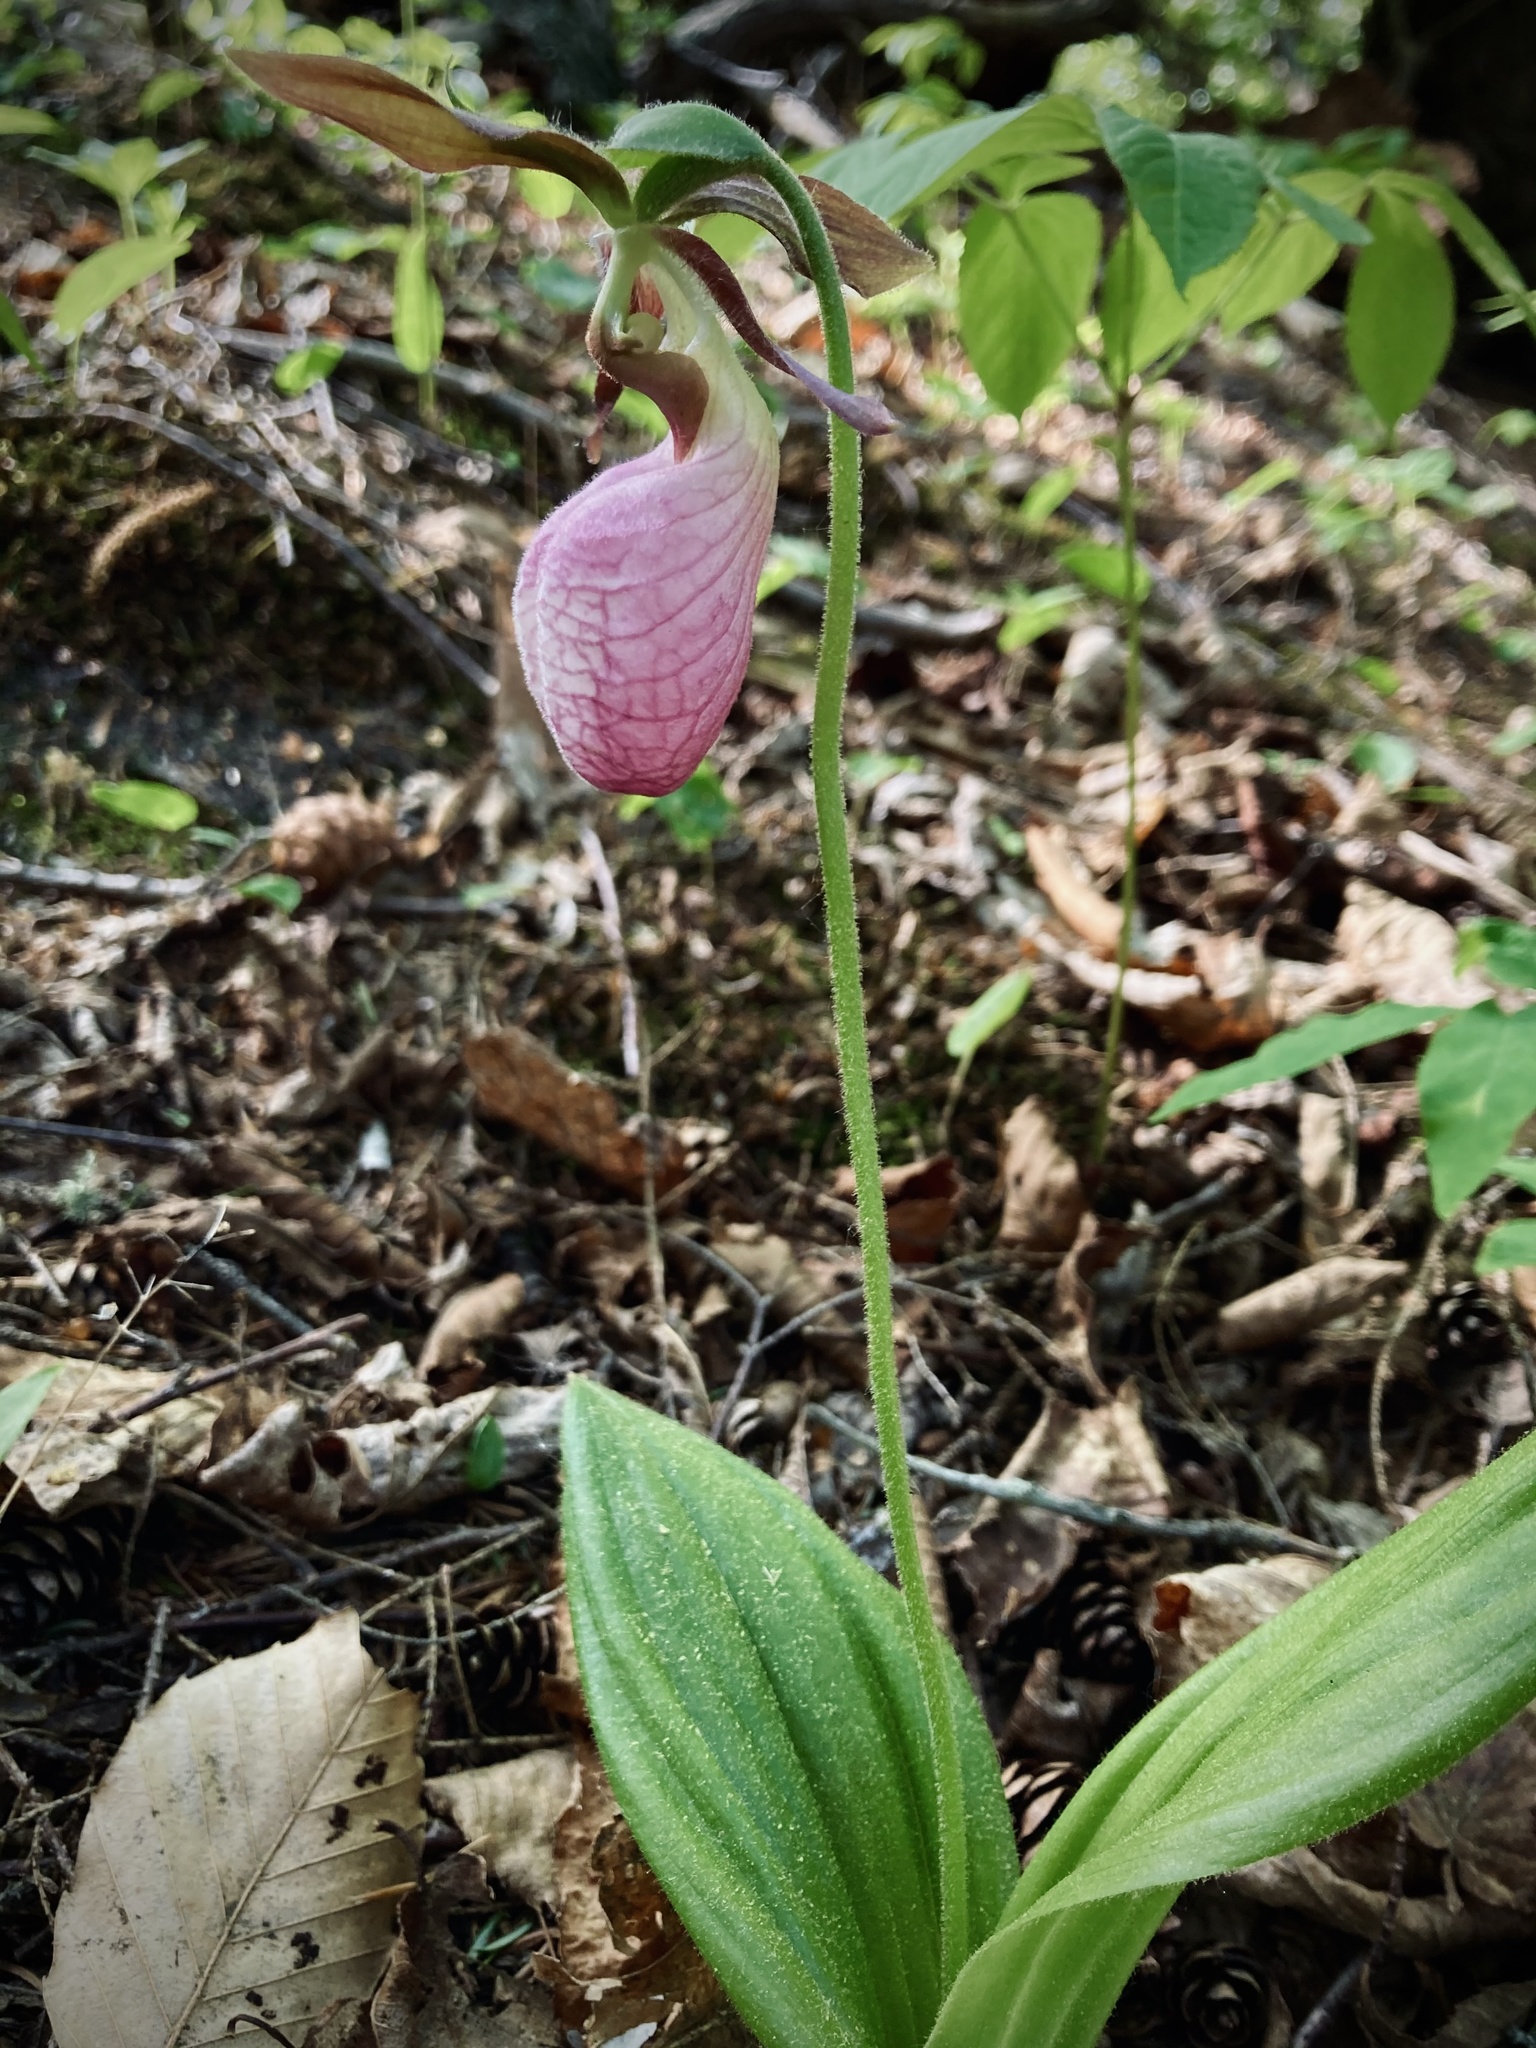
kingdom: Plantae
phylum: Tracheophyta
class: Liliopsida
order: Asparagales
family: Orchidaceae
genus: Cypripedium
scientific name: Cypripedium acaule
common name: Pink lady's-slipper
